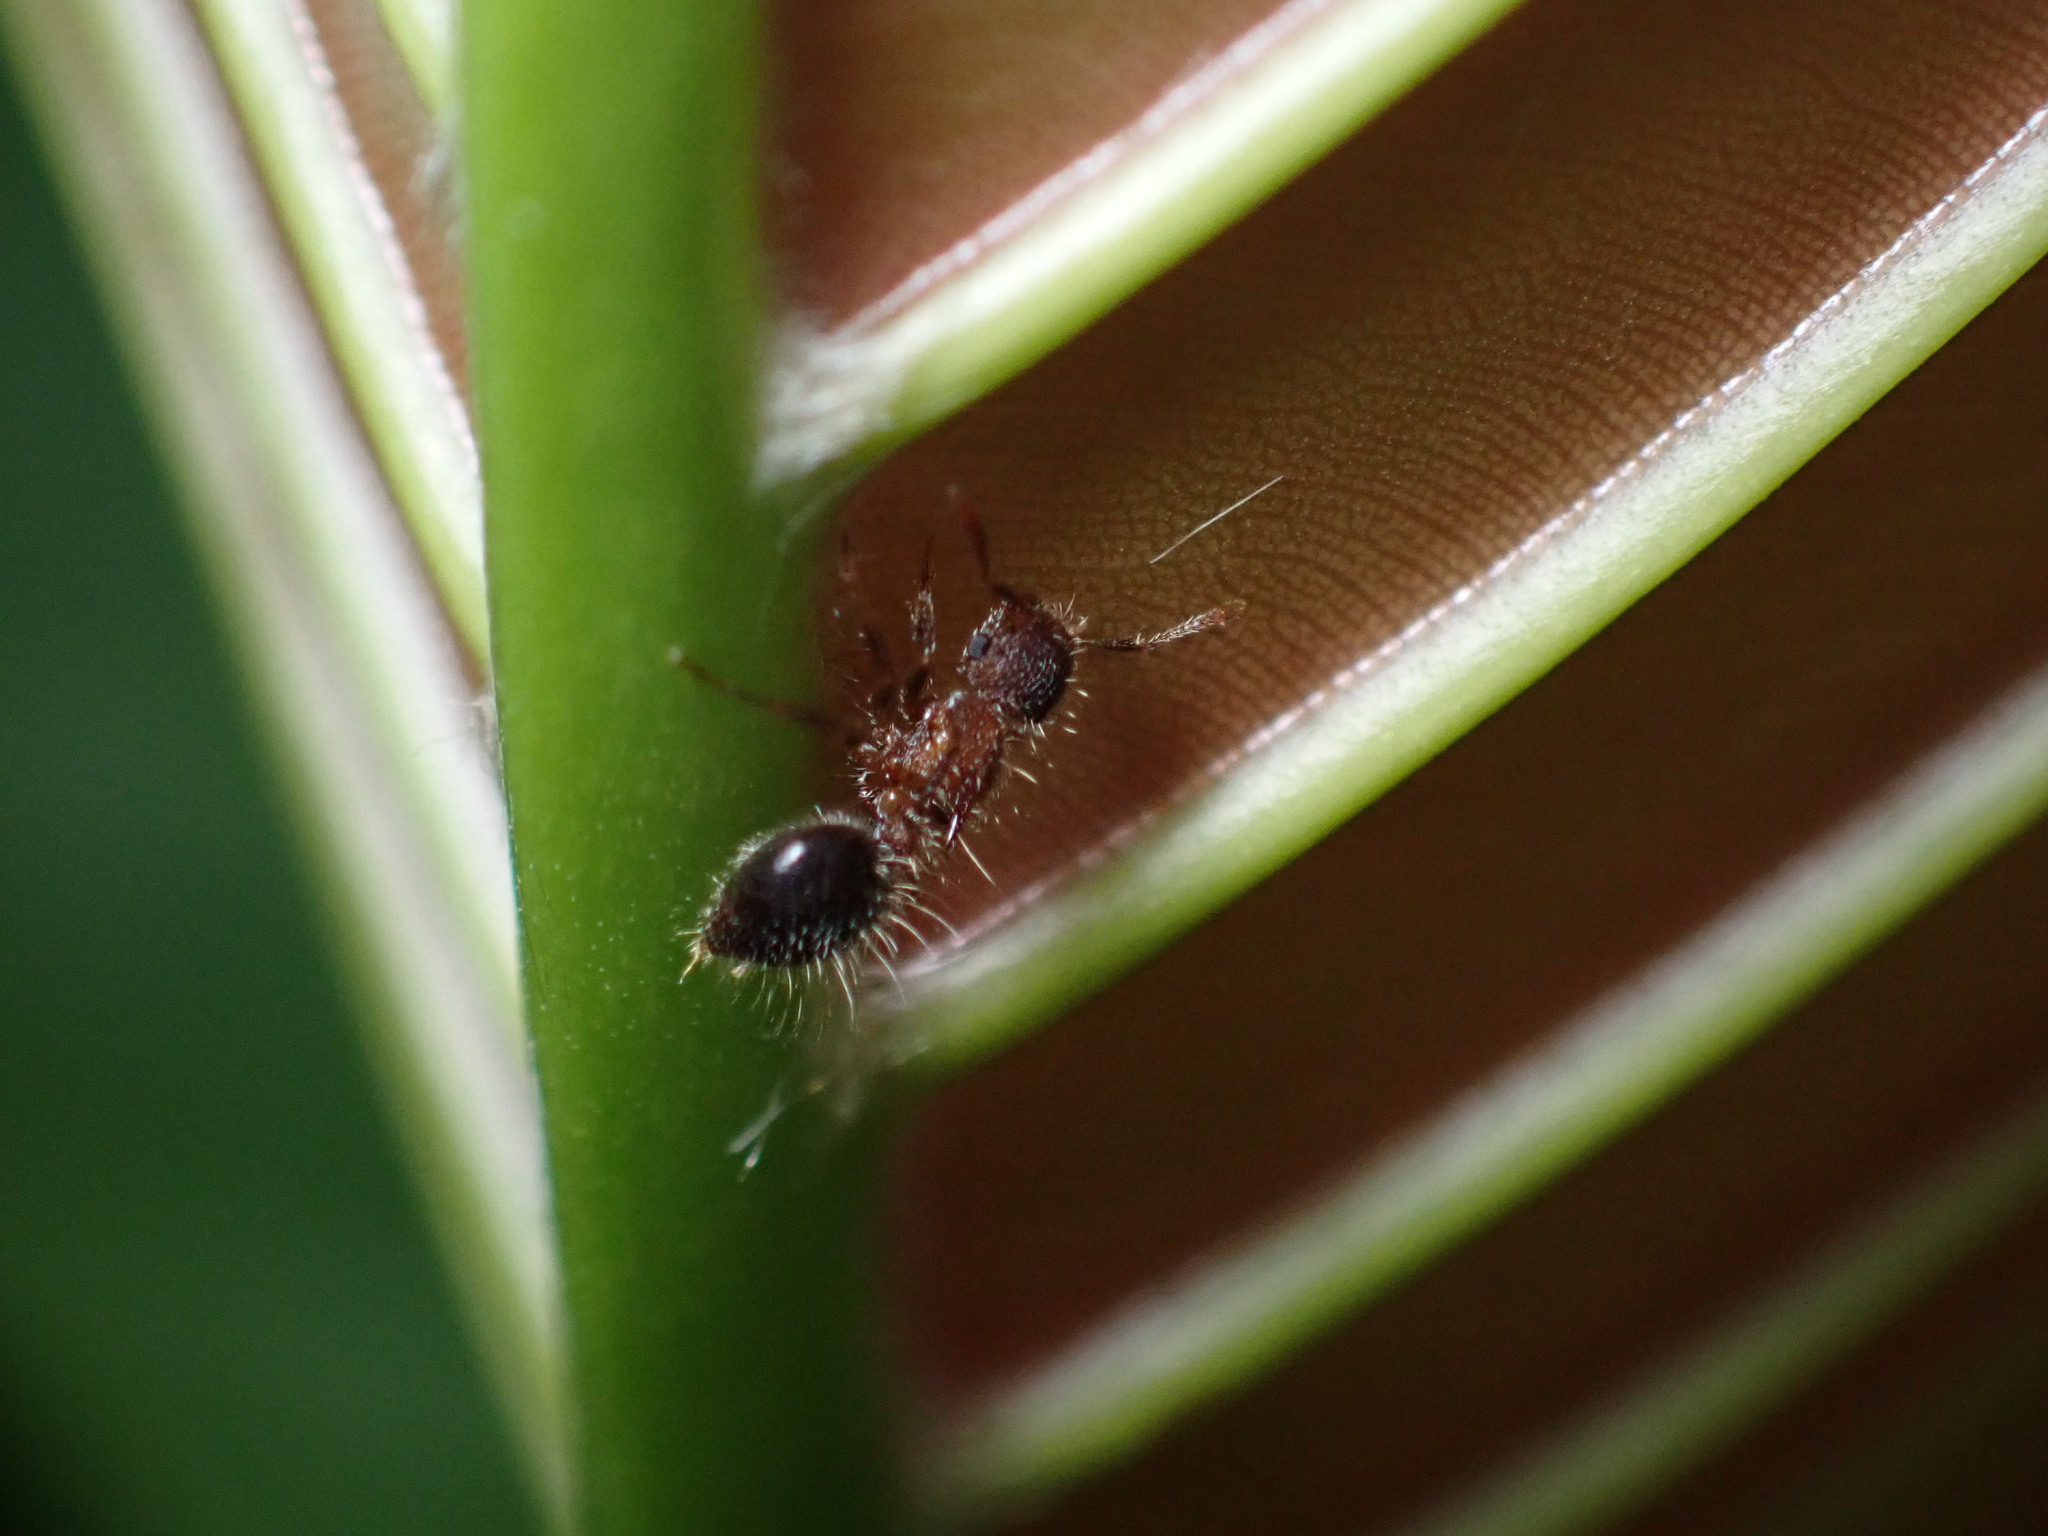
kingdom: Animalia
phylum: Arthropoda
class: Insecta
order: Hymenoptera
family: Formicidae
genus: Meranoplus
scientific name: Meranoplus bicolor
